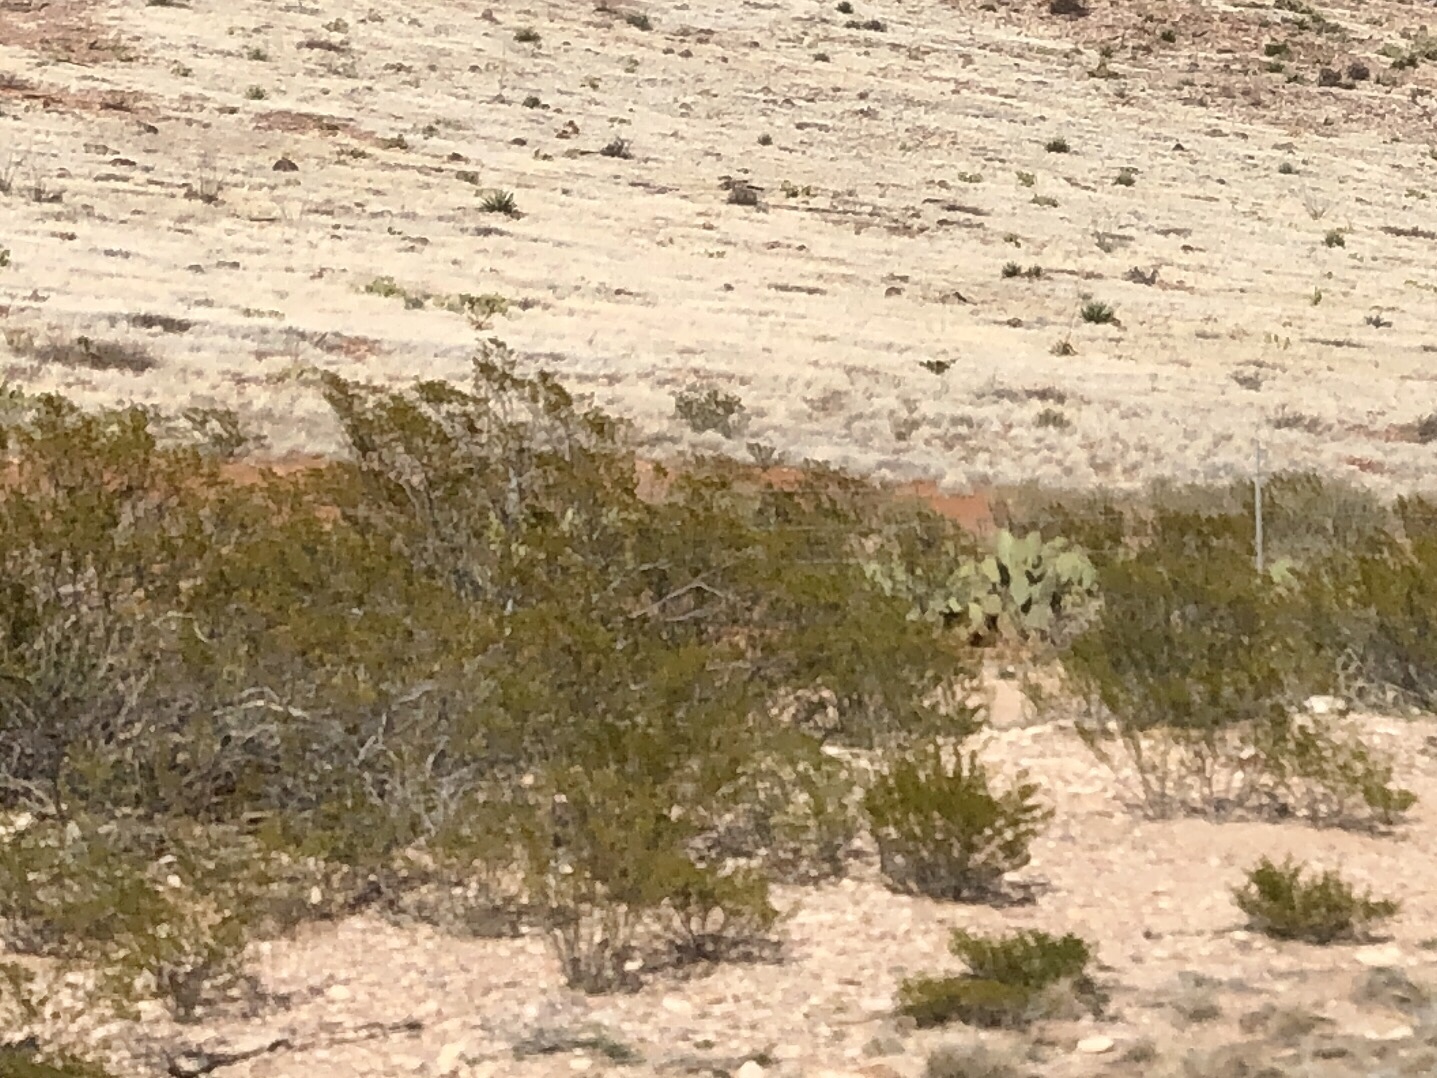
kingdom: Plantae
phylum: Tracheophyta
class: Magnoliopsida
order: Zygophyllales
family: Zygophyllaceae
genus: Larrea
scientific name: Larrea tridentata
